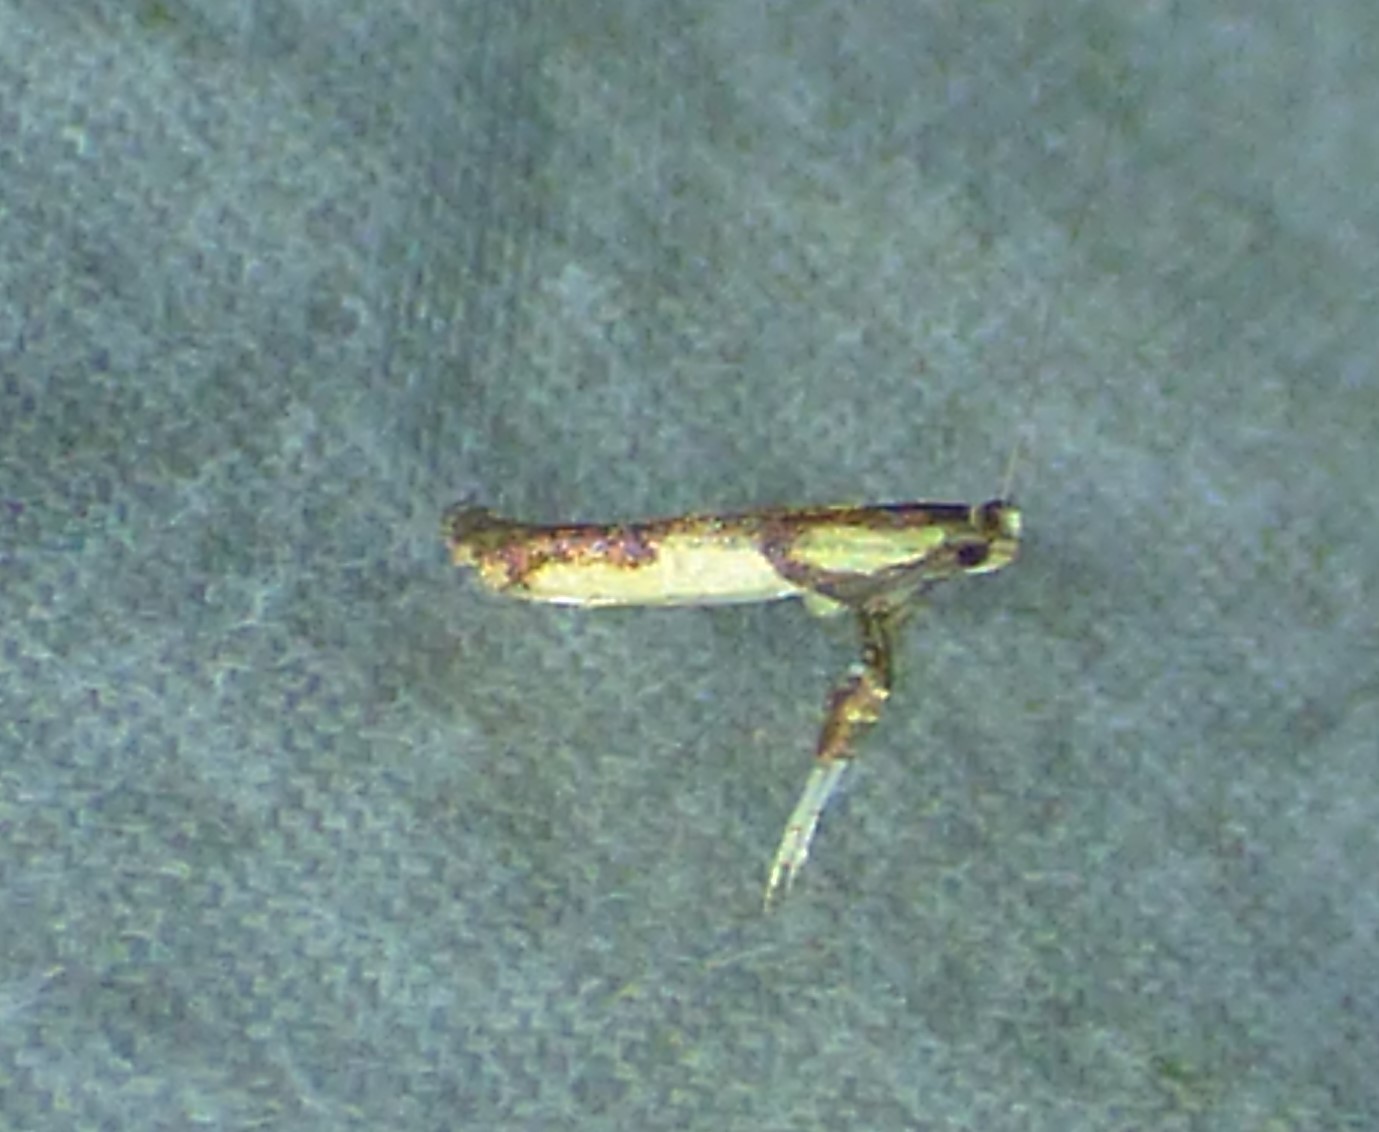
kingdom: Animalia
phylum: Arthropoda
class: Insecta
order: Lepidoptera
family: Gracillariidae
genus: Caloptilia
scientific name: Caloptilia blandella
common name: Walnut caloptilia moth
